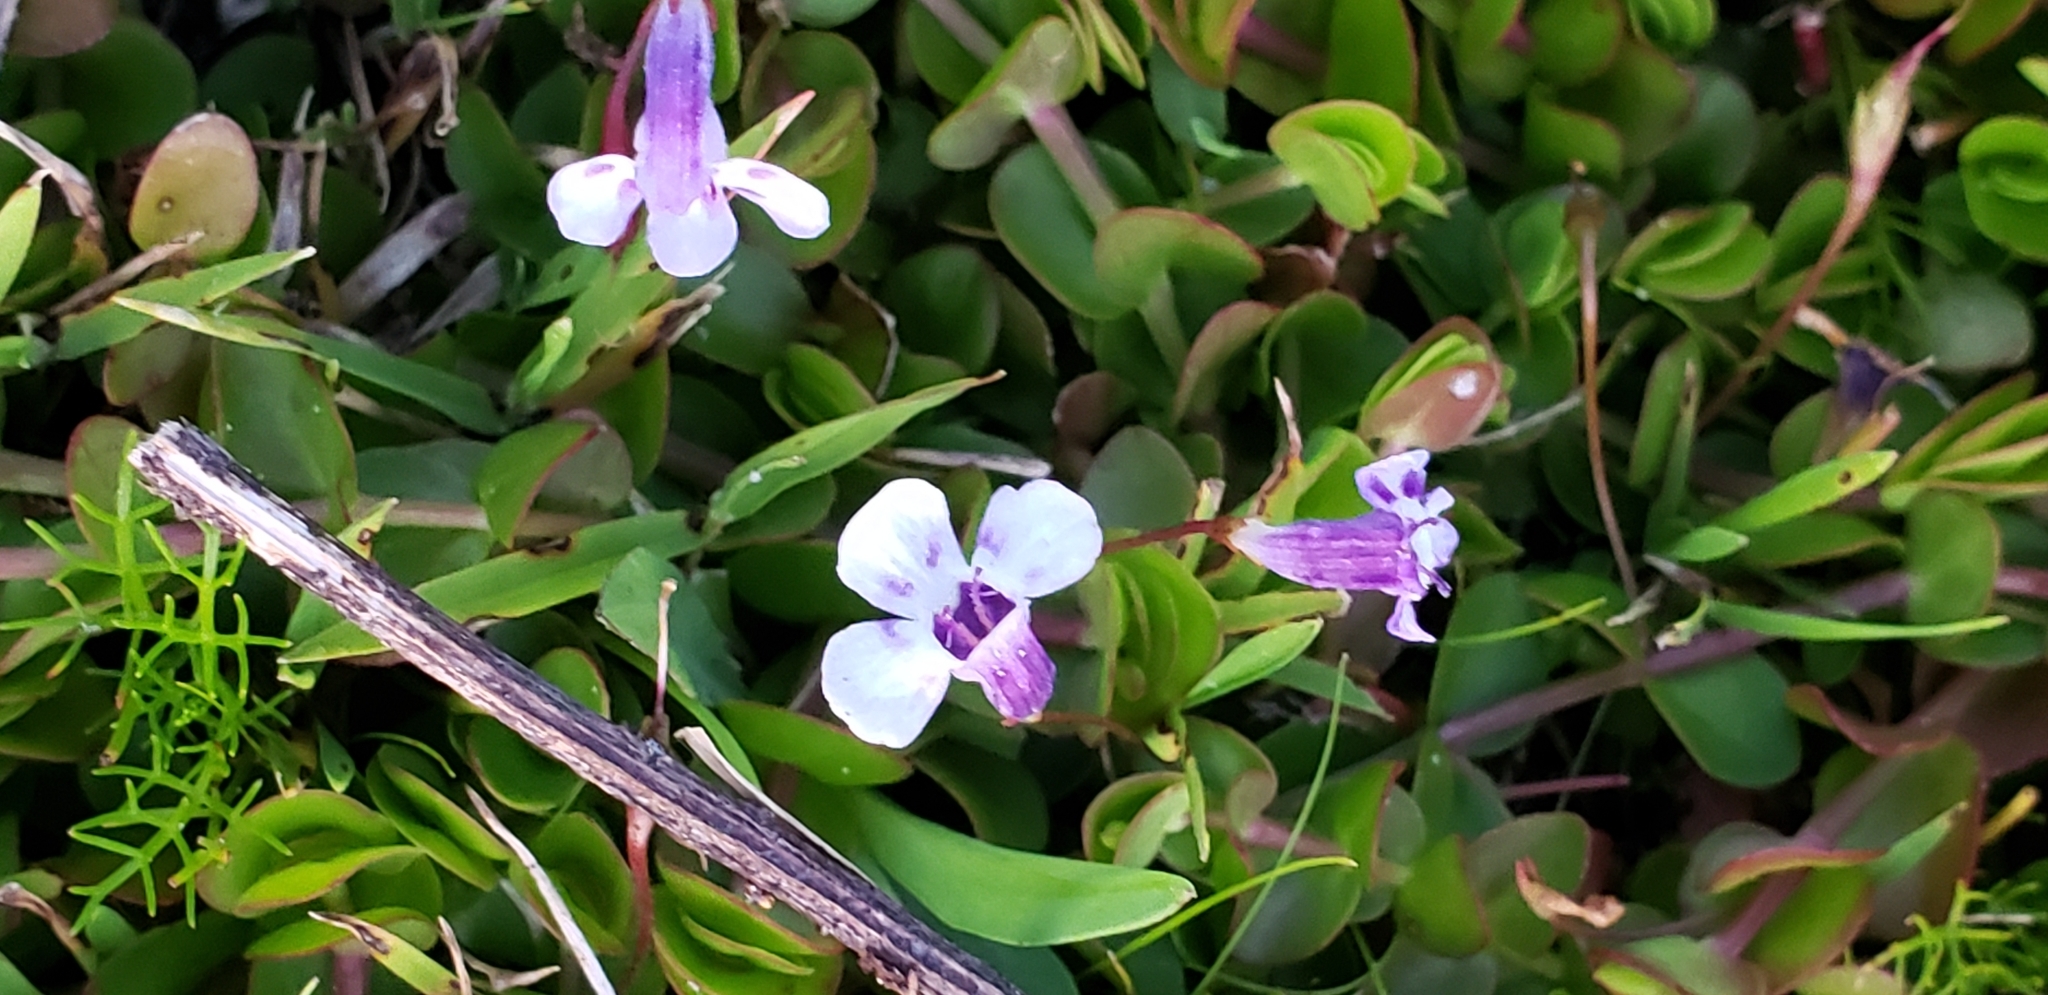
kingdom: Plantae
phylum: Tracheophyta
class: Magnoliopsida
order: Lamiales
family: Linderniaceae
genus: Lindernia
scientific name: Lindernia grandiflora
